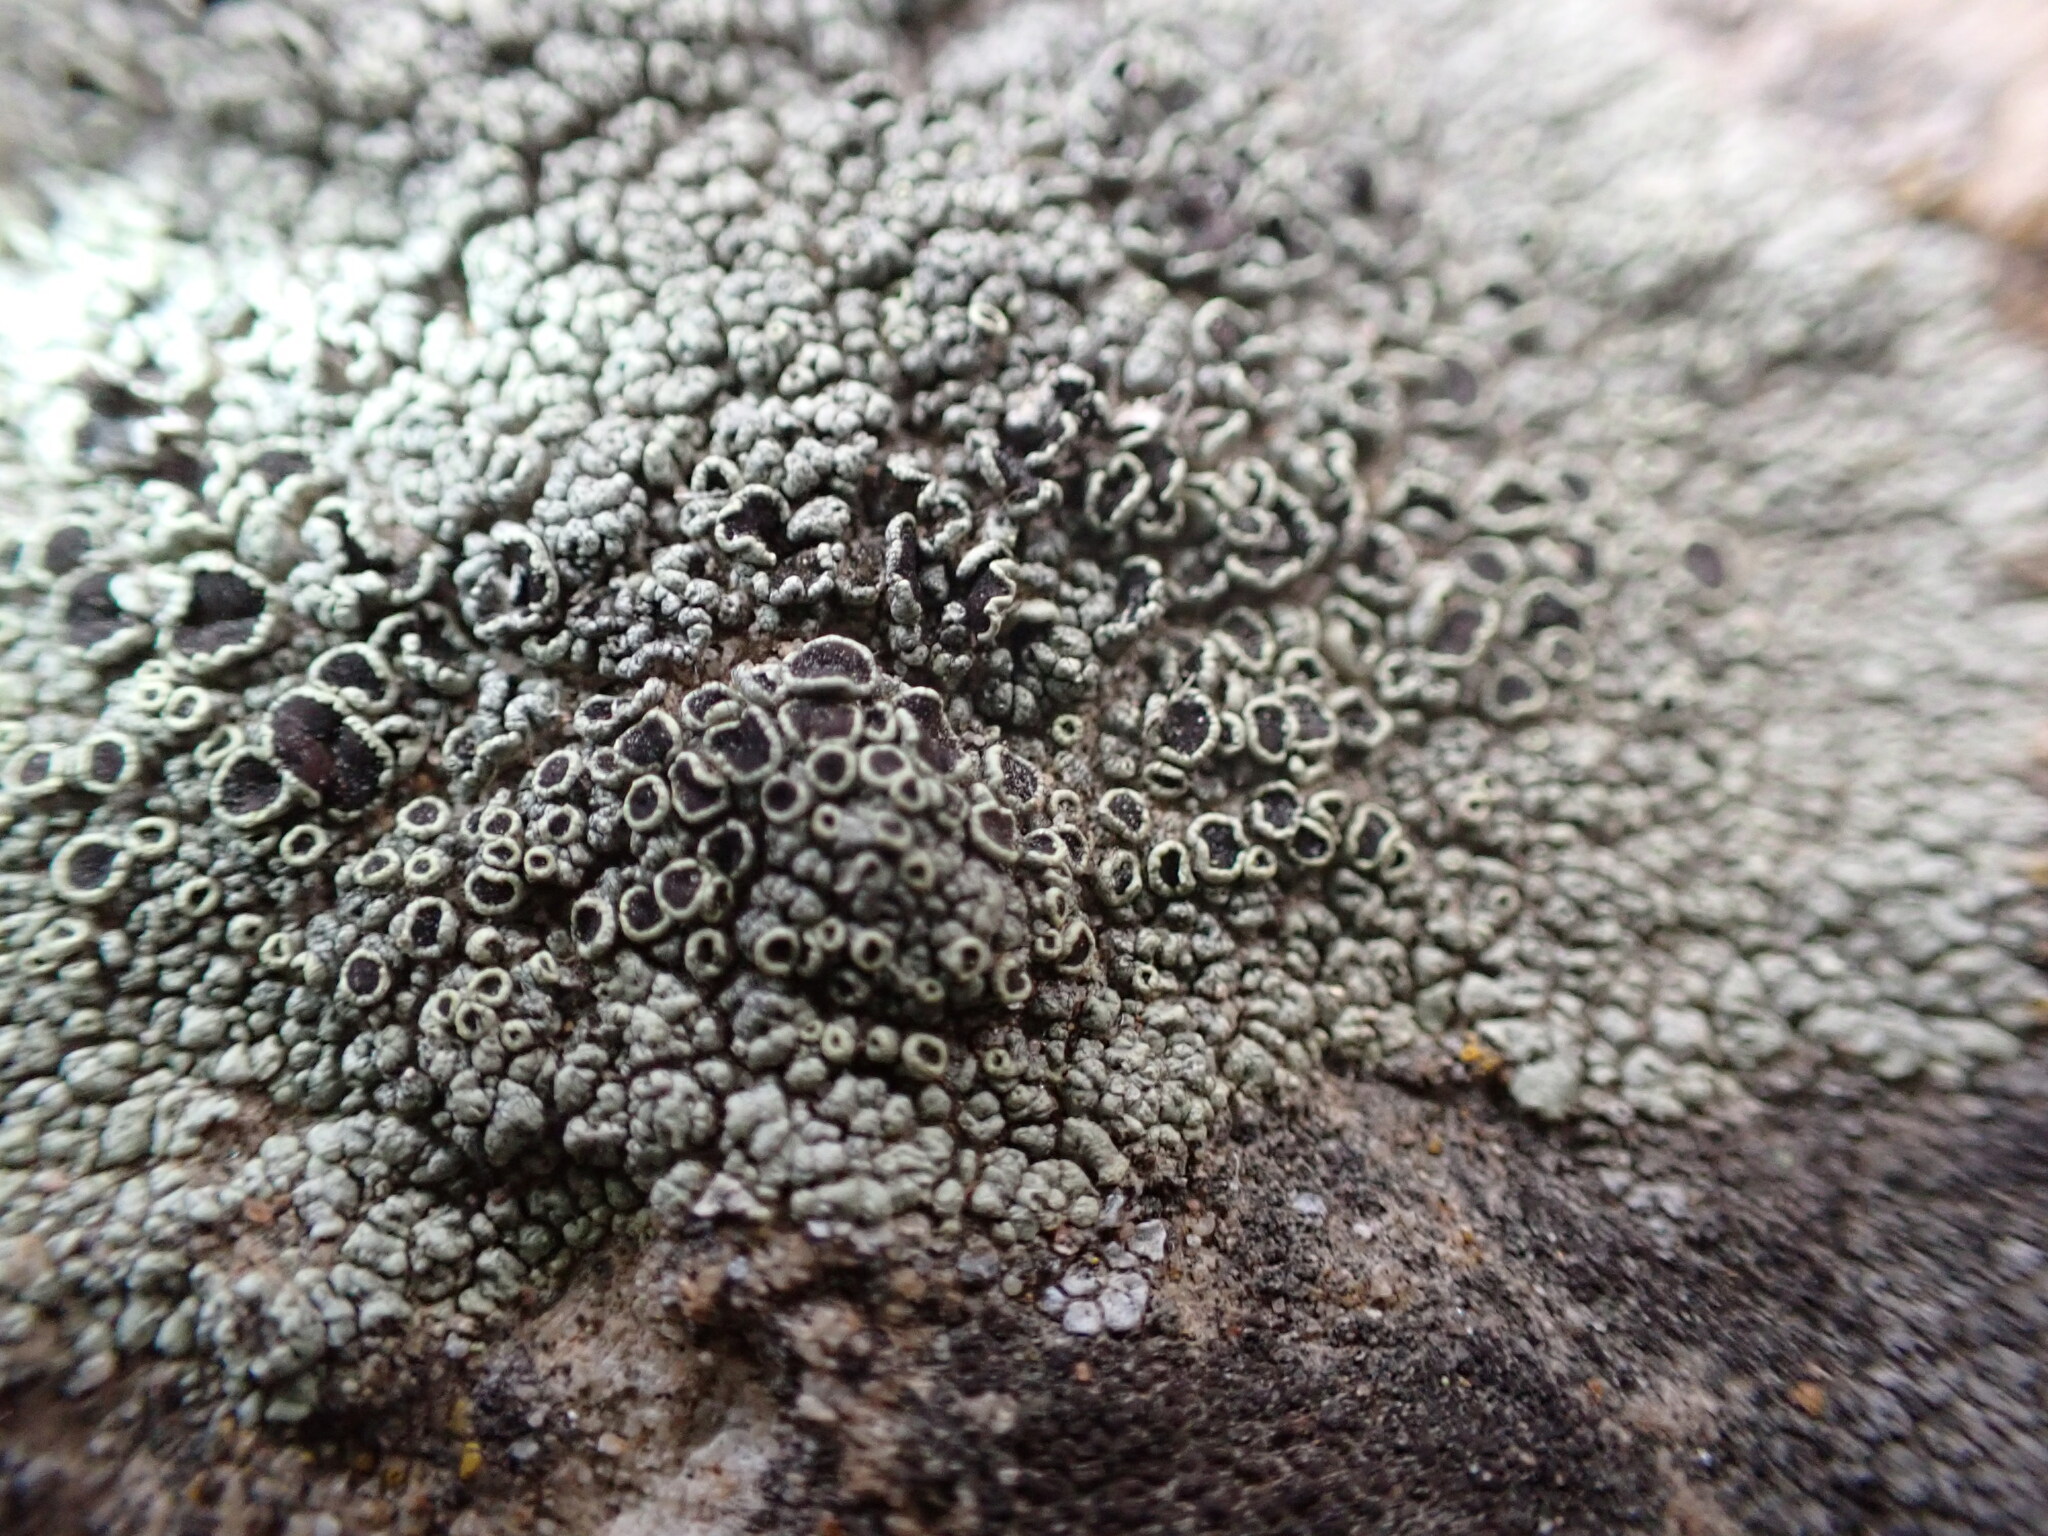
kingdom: Fungi
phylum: Ascomycota
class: Lecanoromycetes
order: Lecanorales
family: Lecanoraceae
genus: Lecanora
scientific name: Lecanora argopholis
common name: Varying rim lichen
